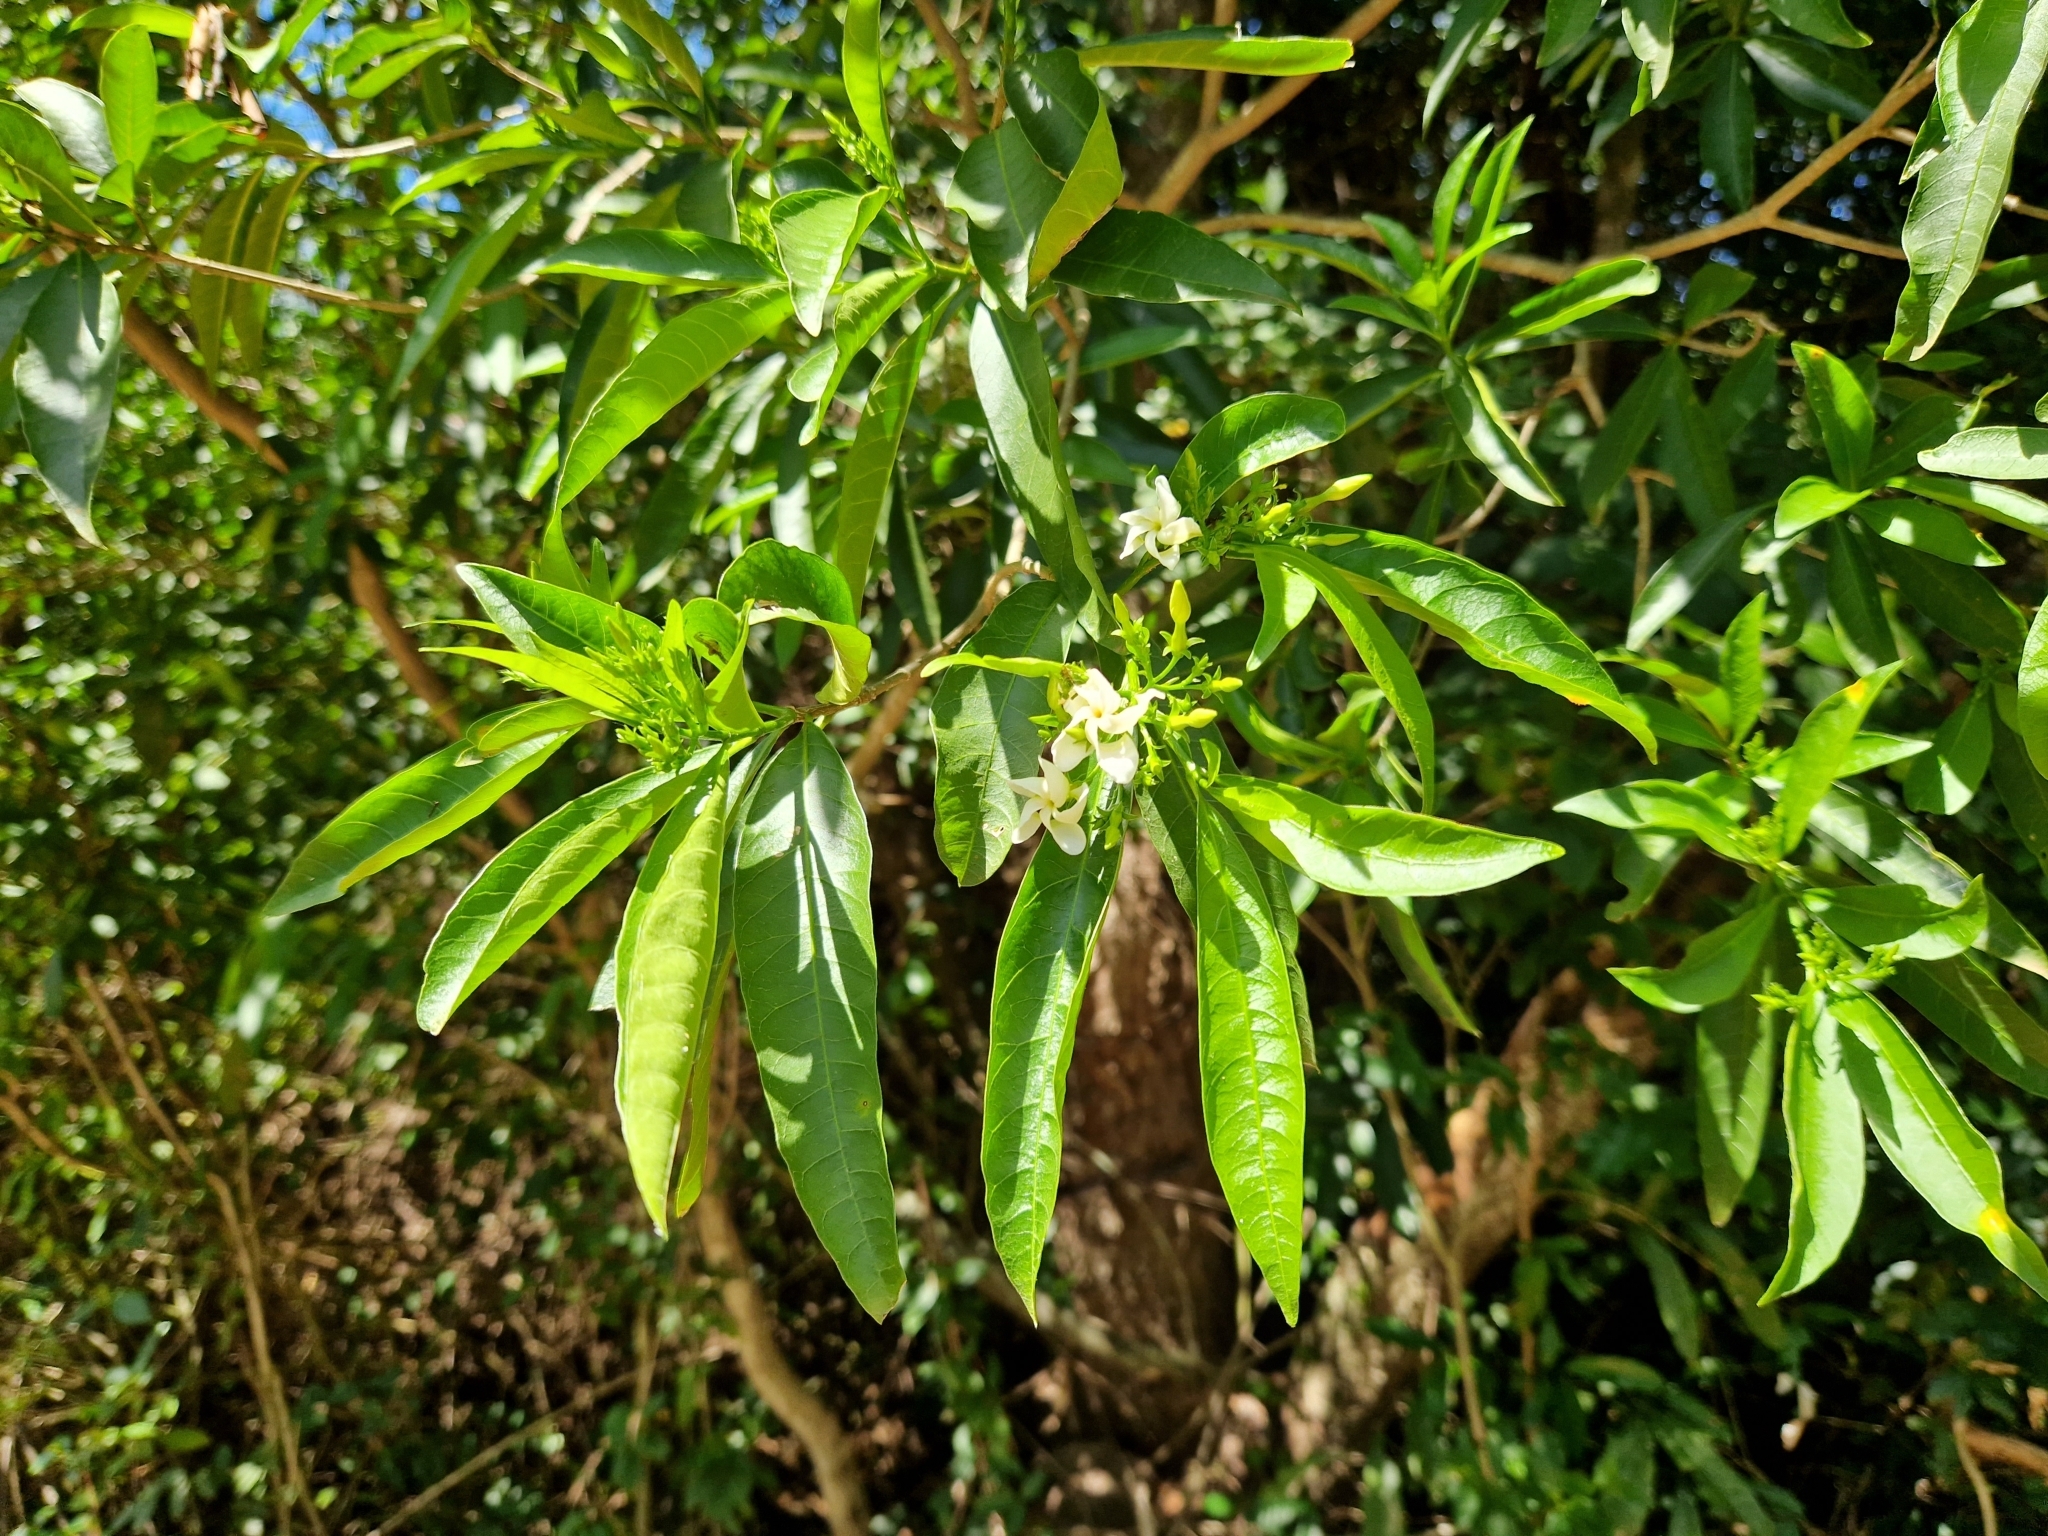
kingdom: Plantae
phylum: Tracheophyta
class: Magnoliopsida
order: Gentianales
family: Apocynaceae
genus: Tabernaemontana
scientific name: Tabernaemontana catharinensis
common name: Pinwheel-flower
